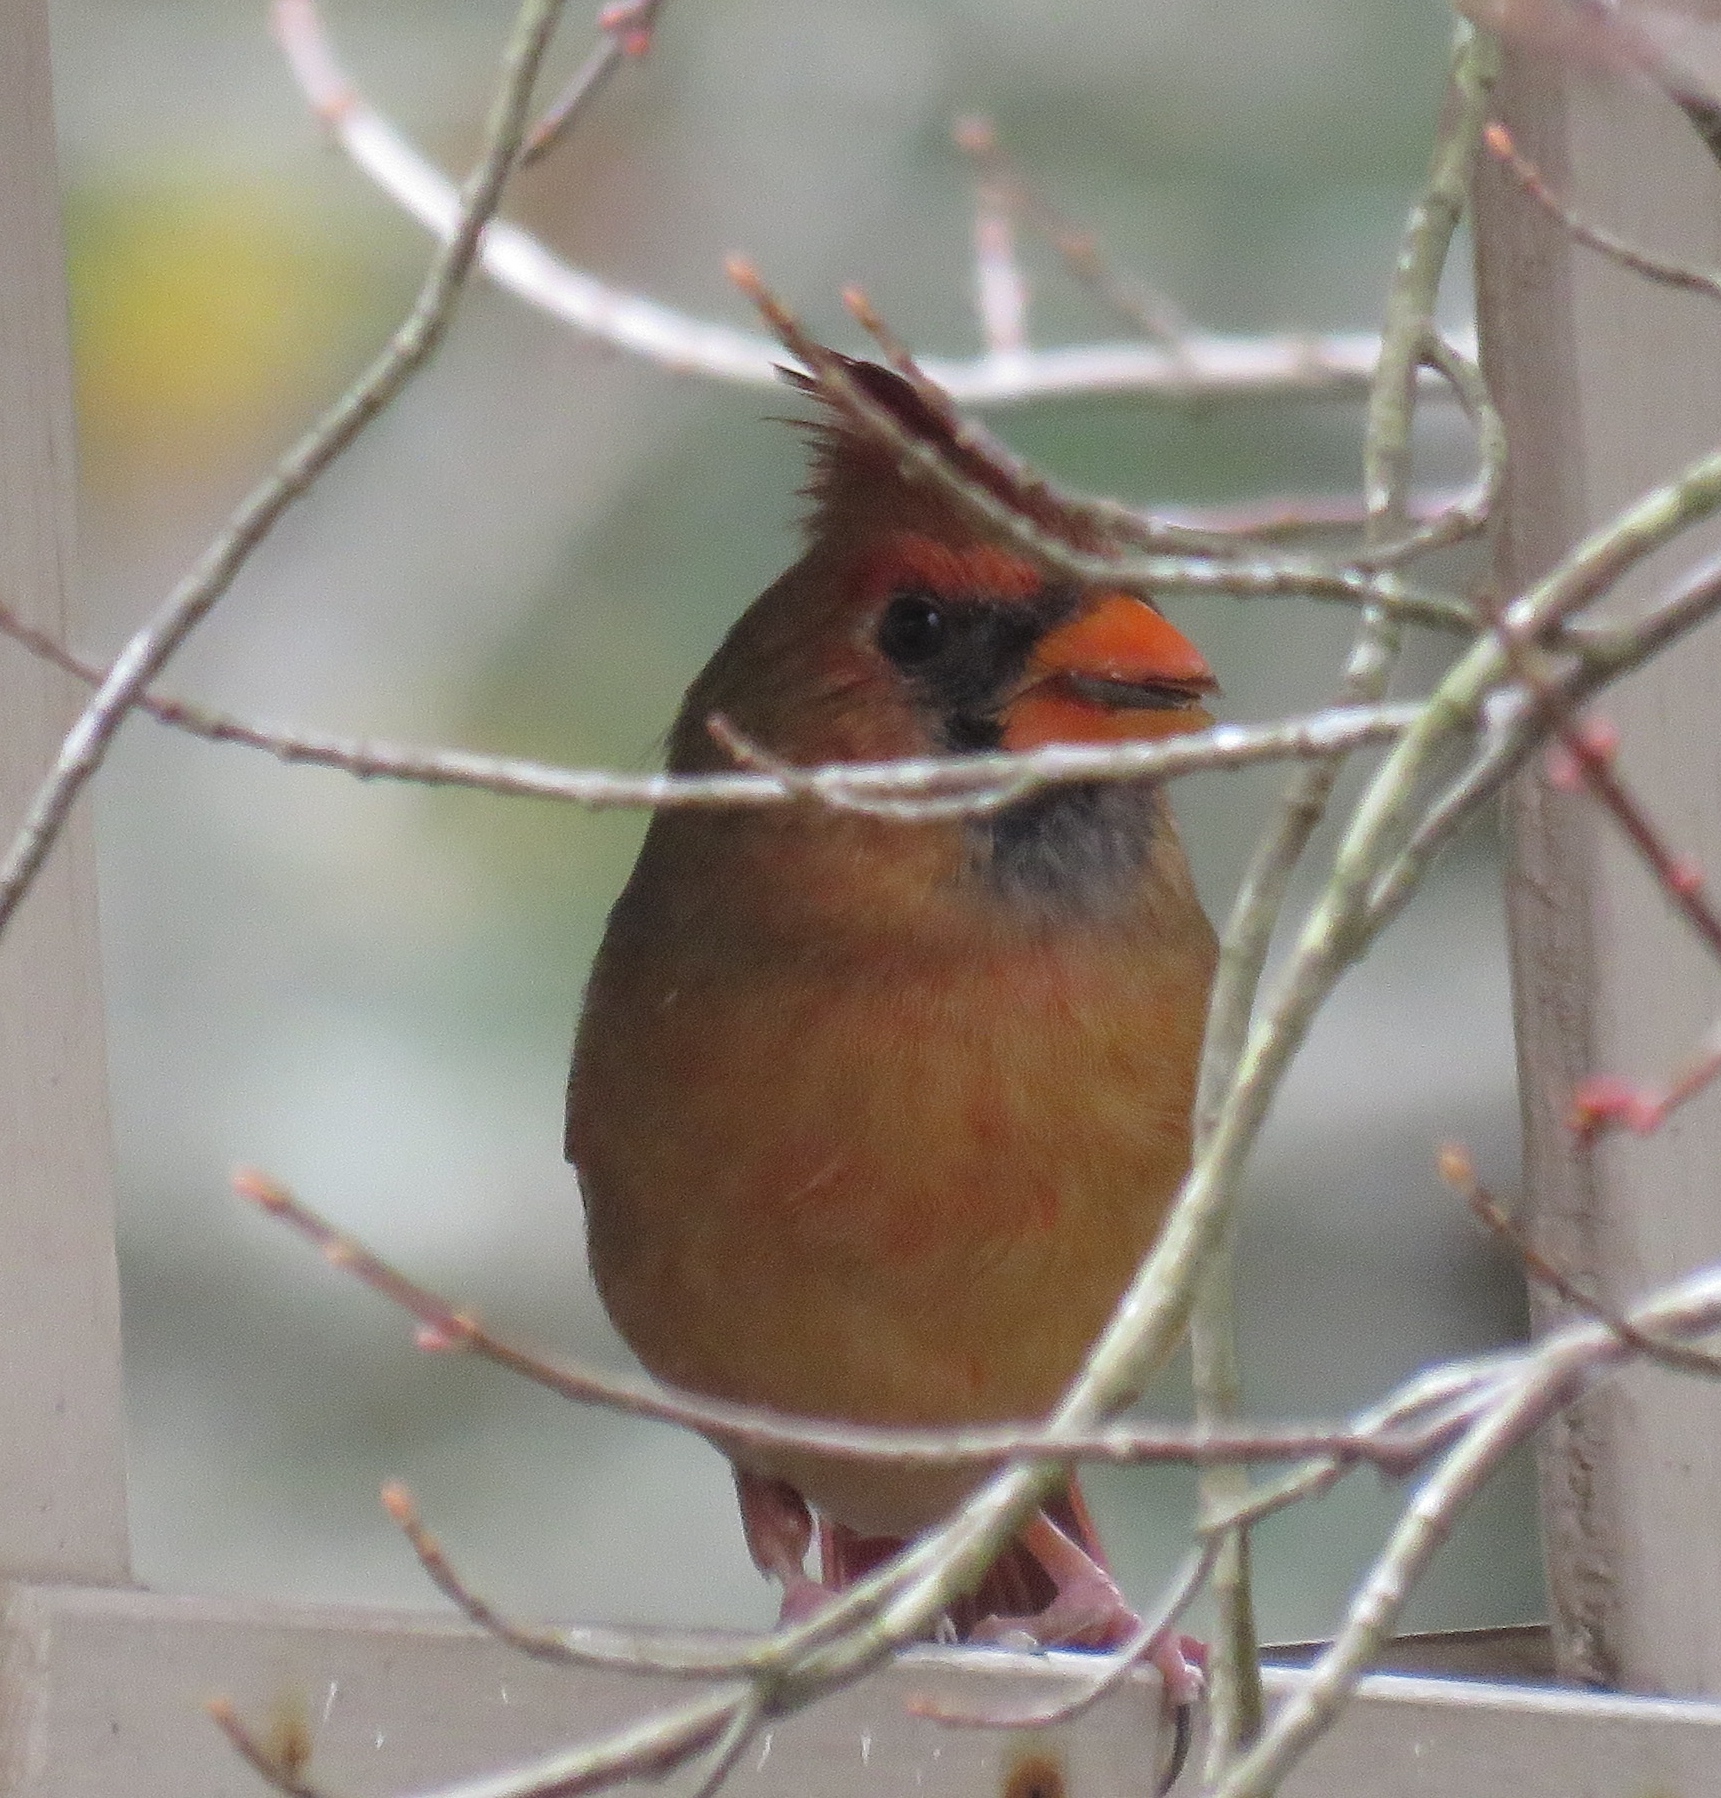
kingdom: Animalia
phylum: Chordata
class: Aves
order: Passeriformes
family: Cardinalidae
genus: Cardinalis
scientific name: Cardinalis cardinalis
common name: Northern cardinal
